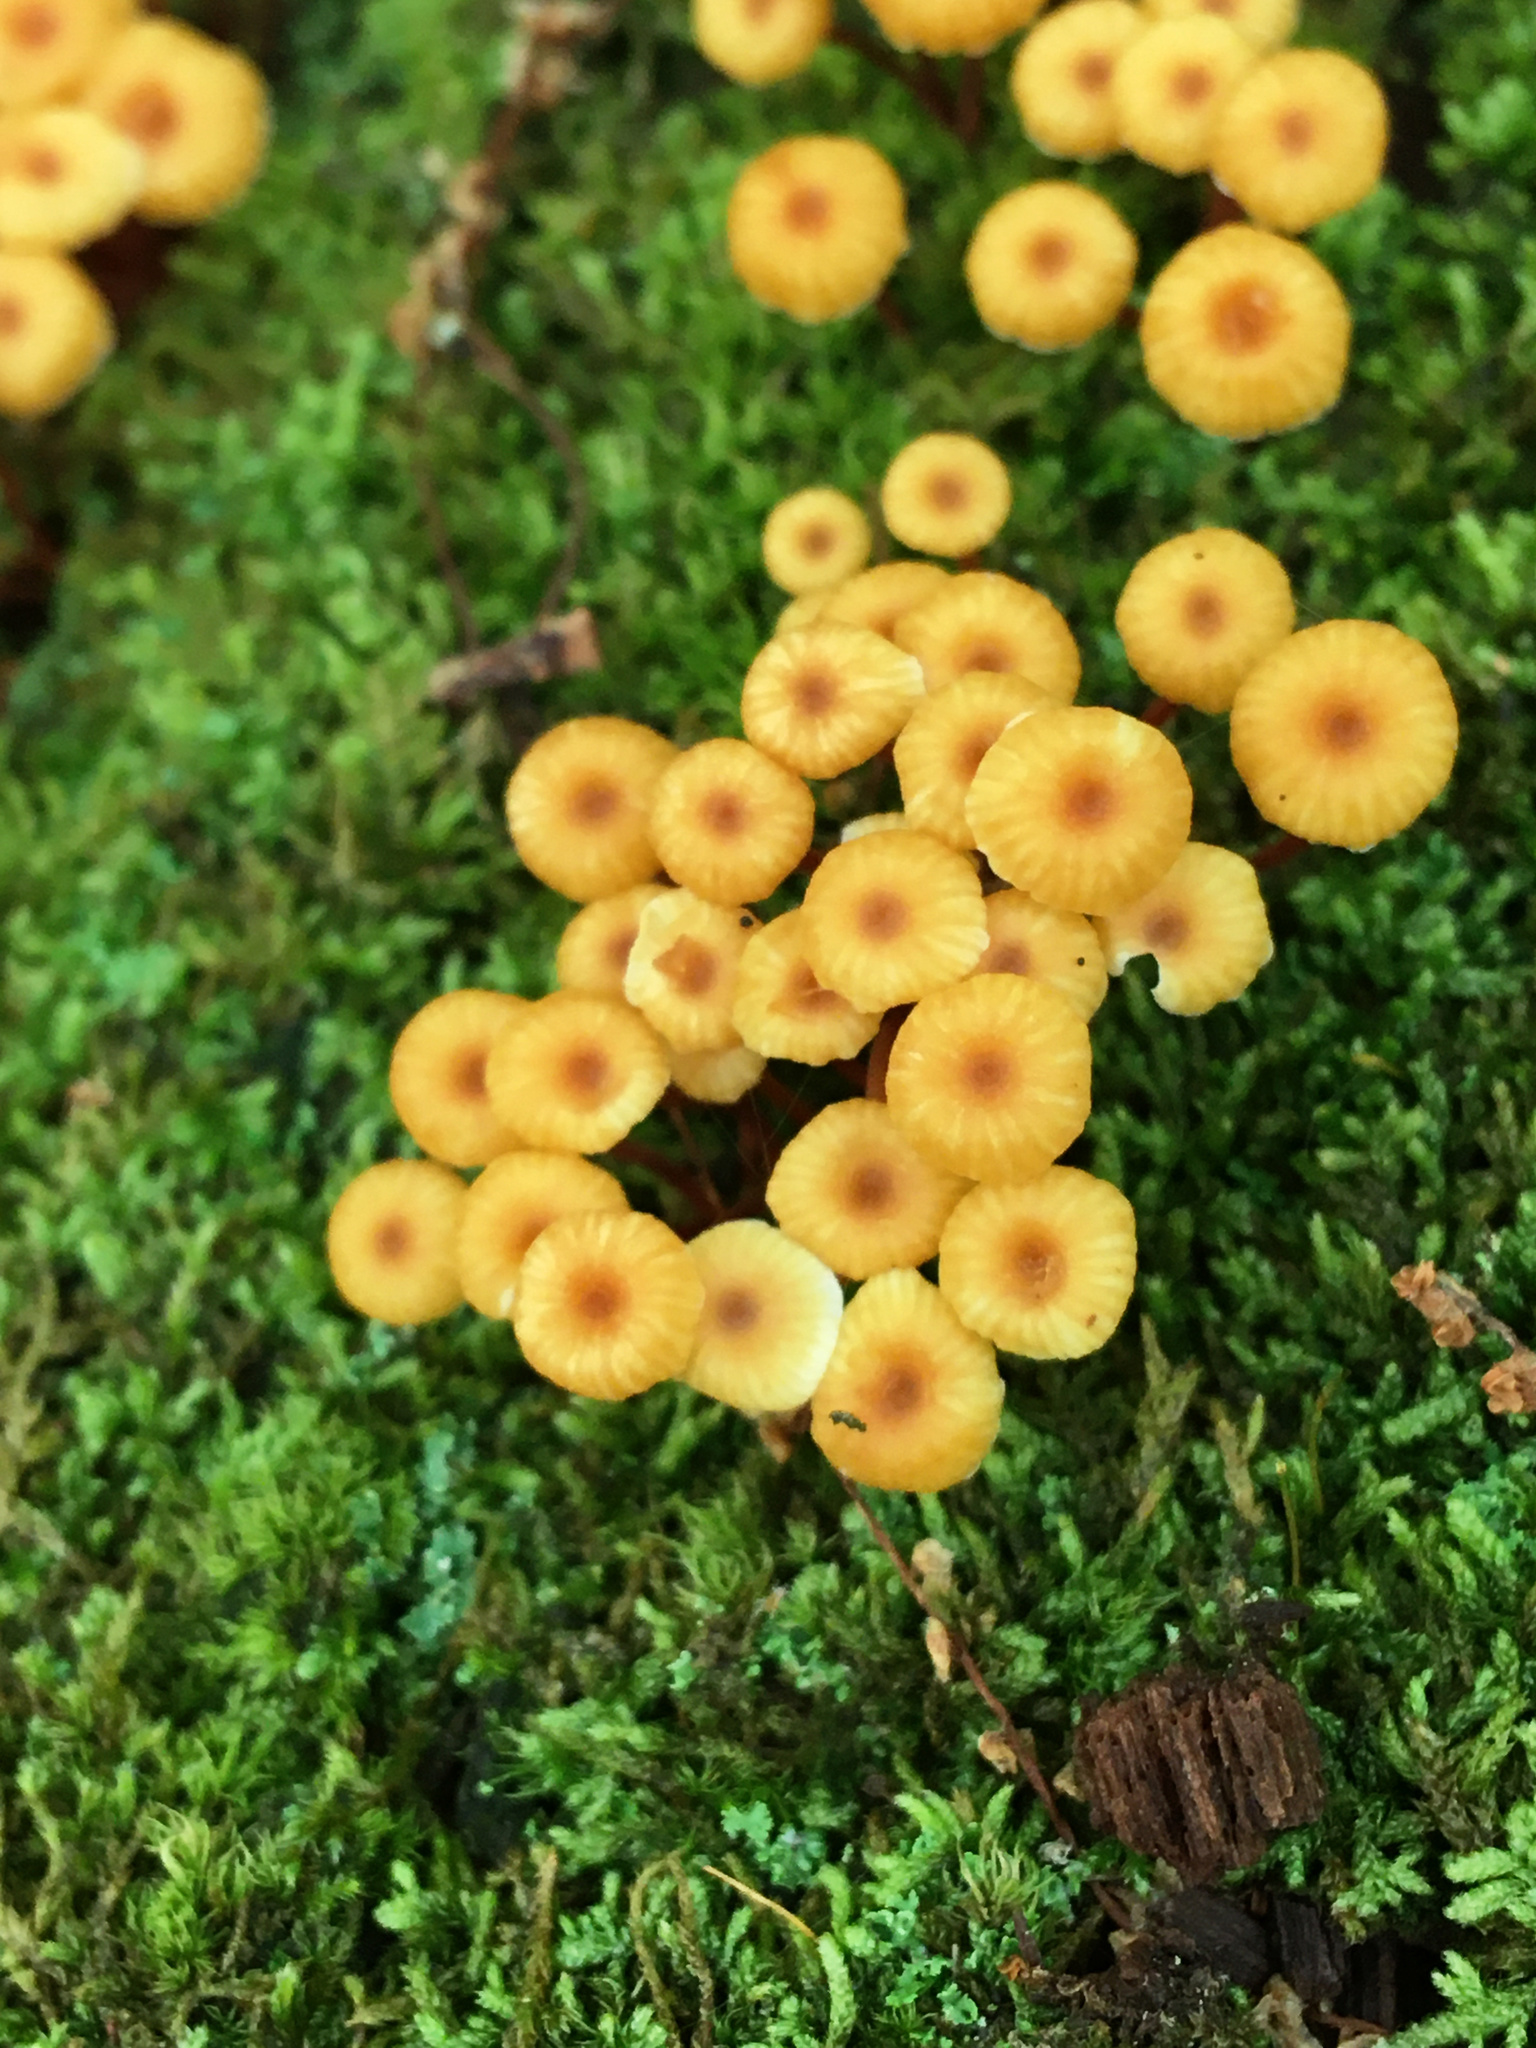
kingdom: Fungi
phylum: Basidiomycota
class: Agaricomycetes
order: Agaricales
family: Mycenaceae
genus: Xeromphalina
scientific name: Xeromphalina kauffmanii
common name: Cross-veined troop mushroom
